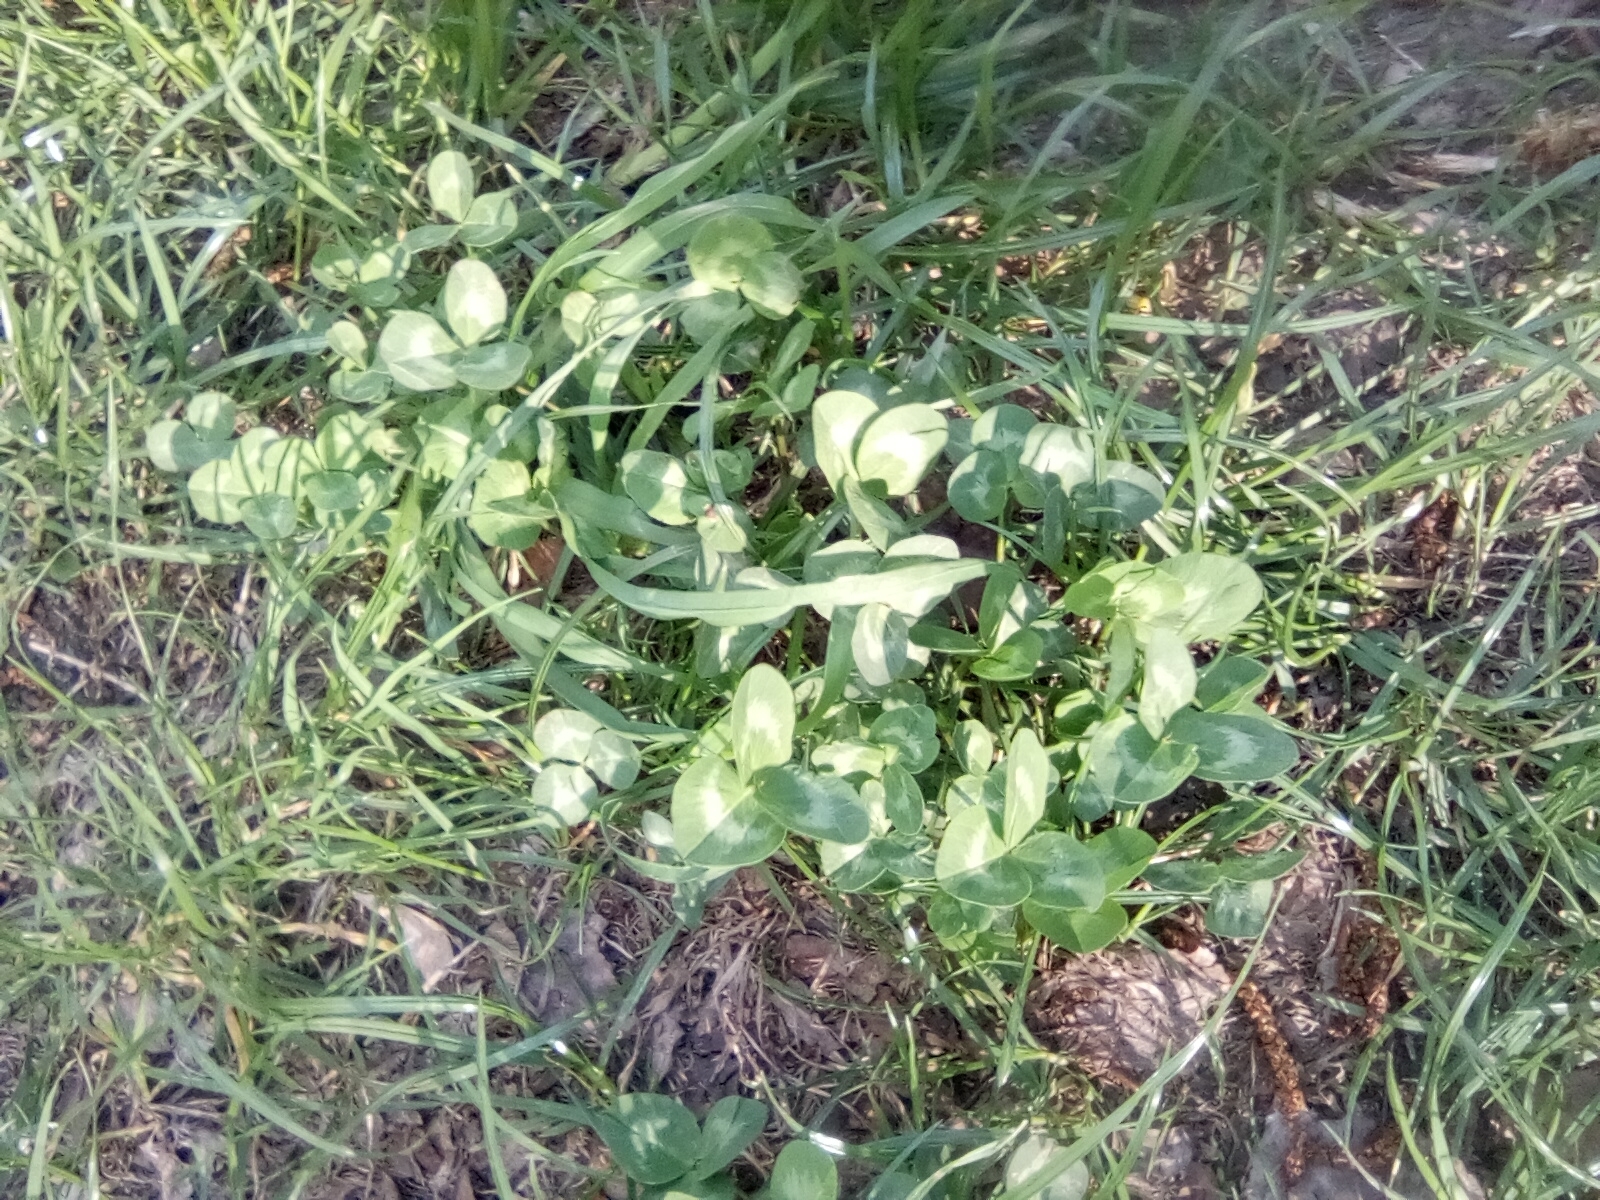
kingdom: Plantae
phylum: Tracheophyta
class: Magnoliopsida
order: Fabales
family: Fabaceae
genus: Trifolium
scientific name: Trifolium pratense
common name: Red clover
